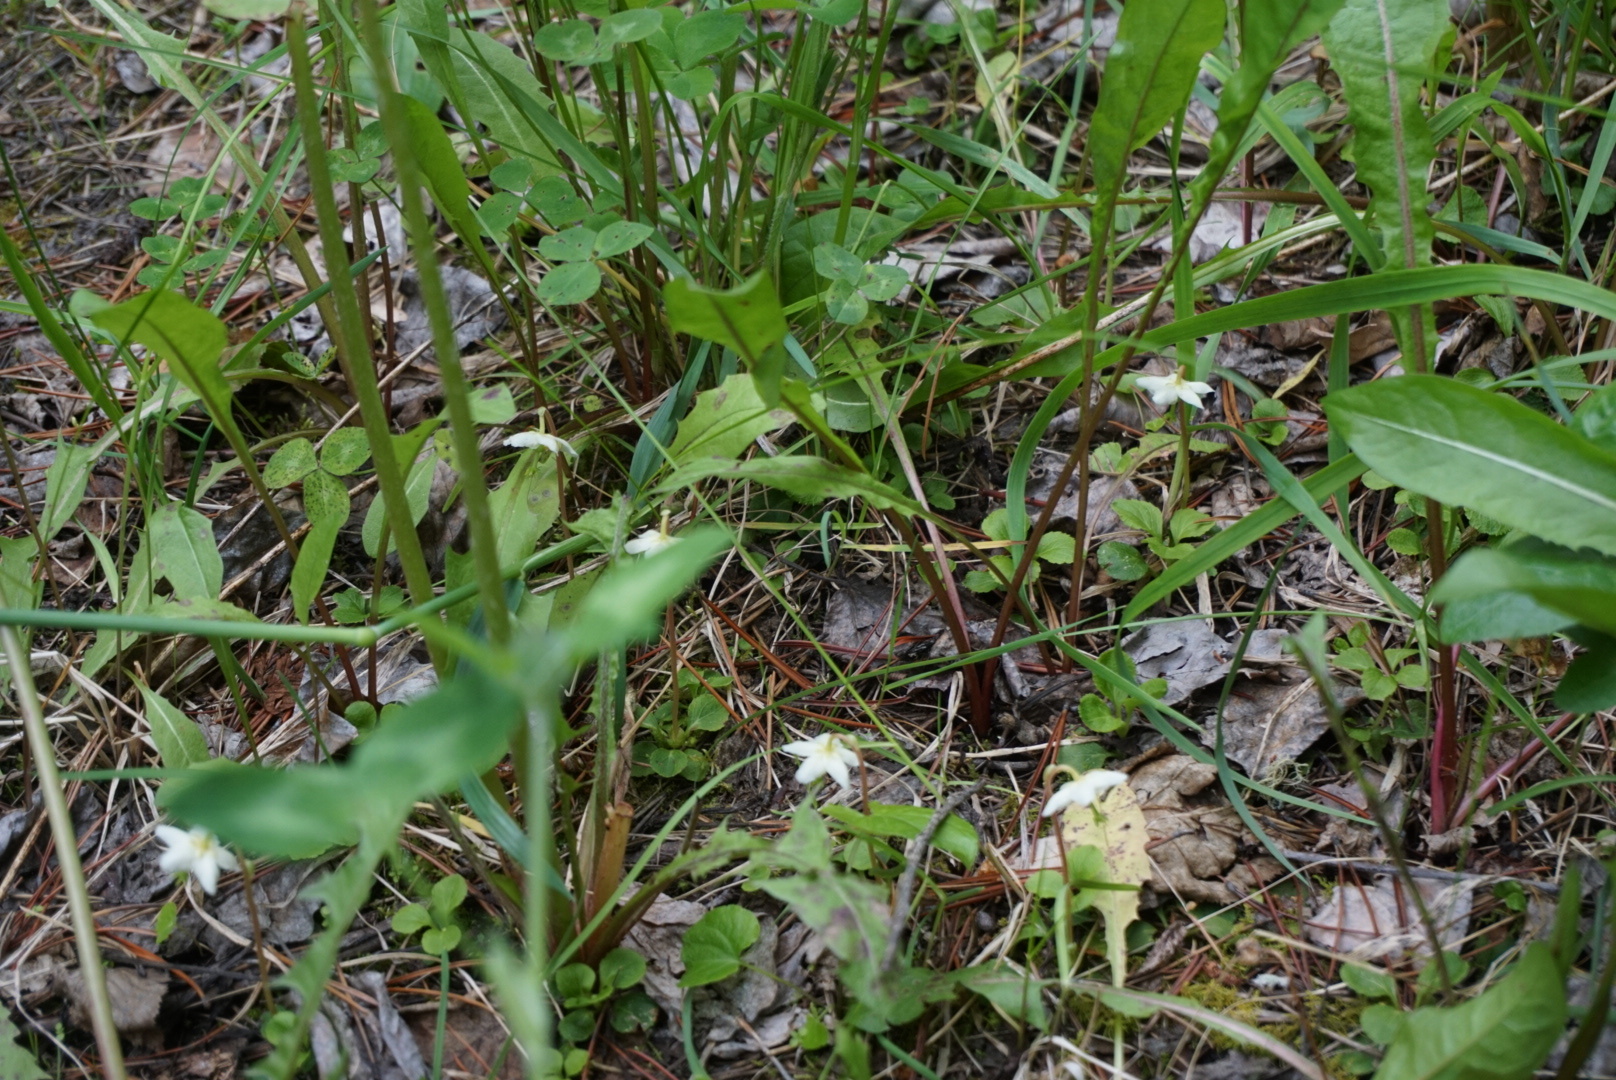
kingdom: Plantae
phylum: Tracheophyta
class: Magnoliopsida
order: Ericales
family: Ericaceae
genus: Moneses
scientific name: Moneses uniflora
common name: One-flowered wintergreen
